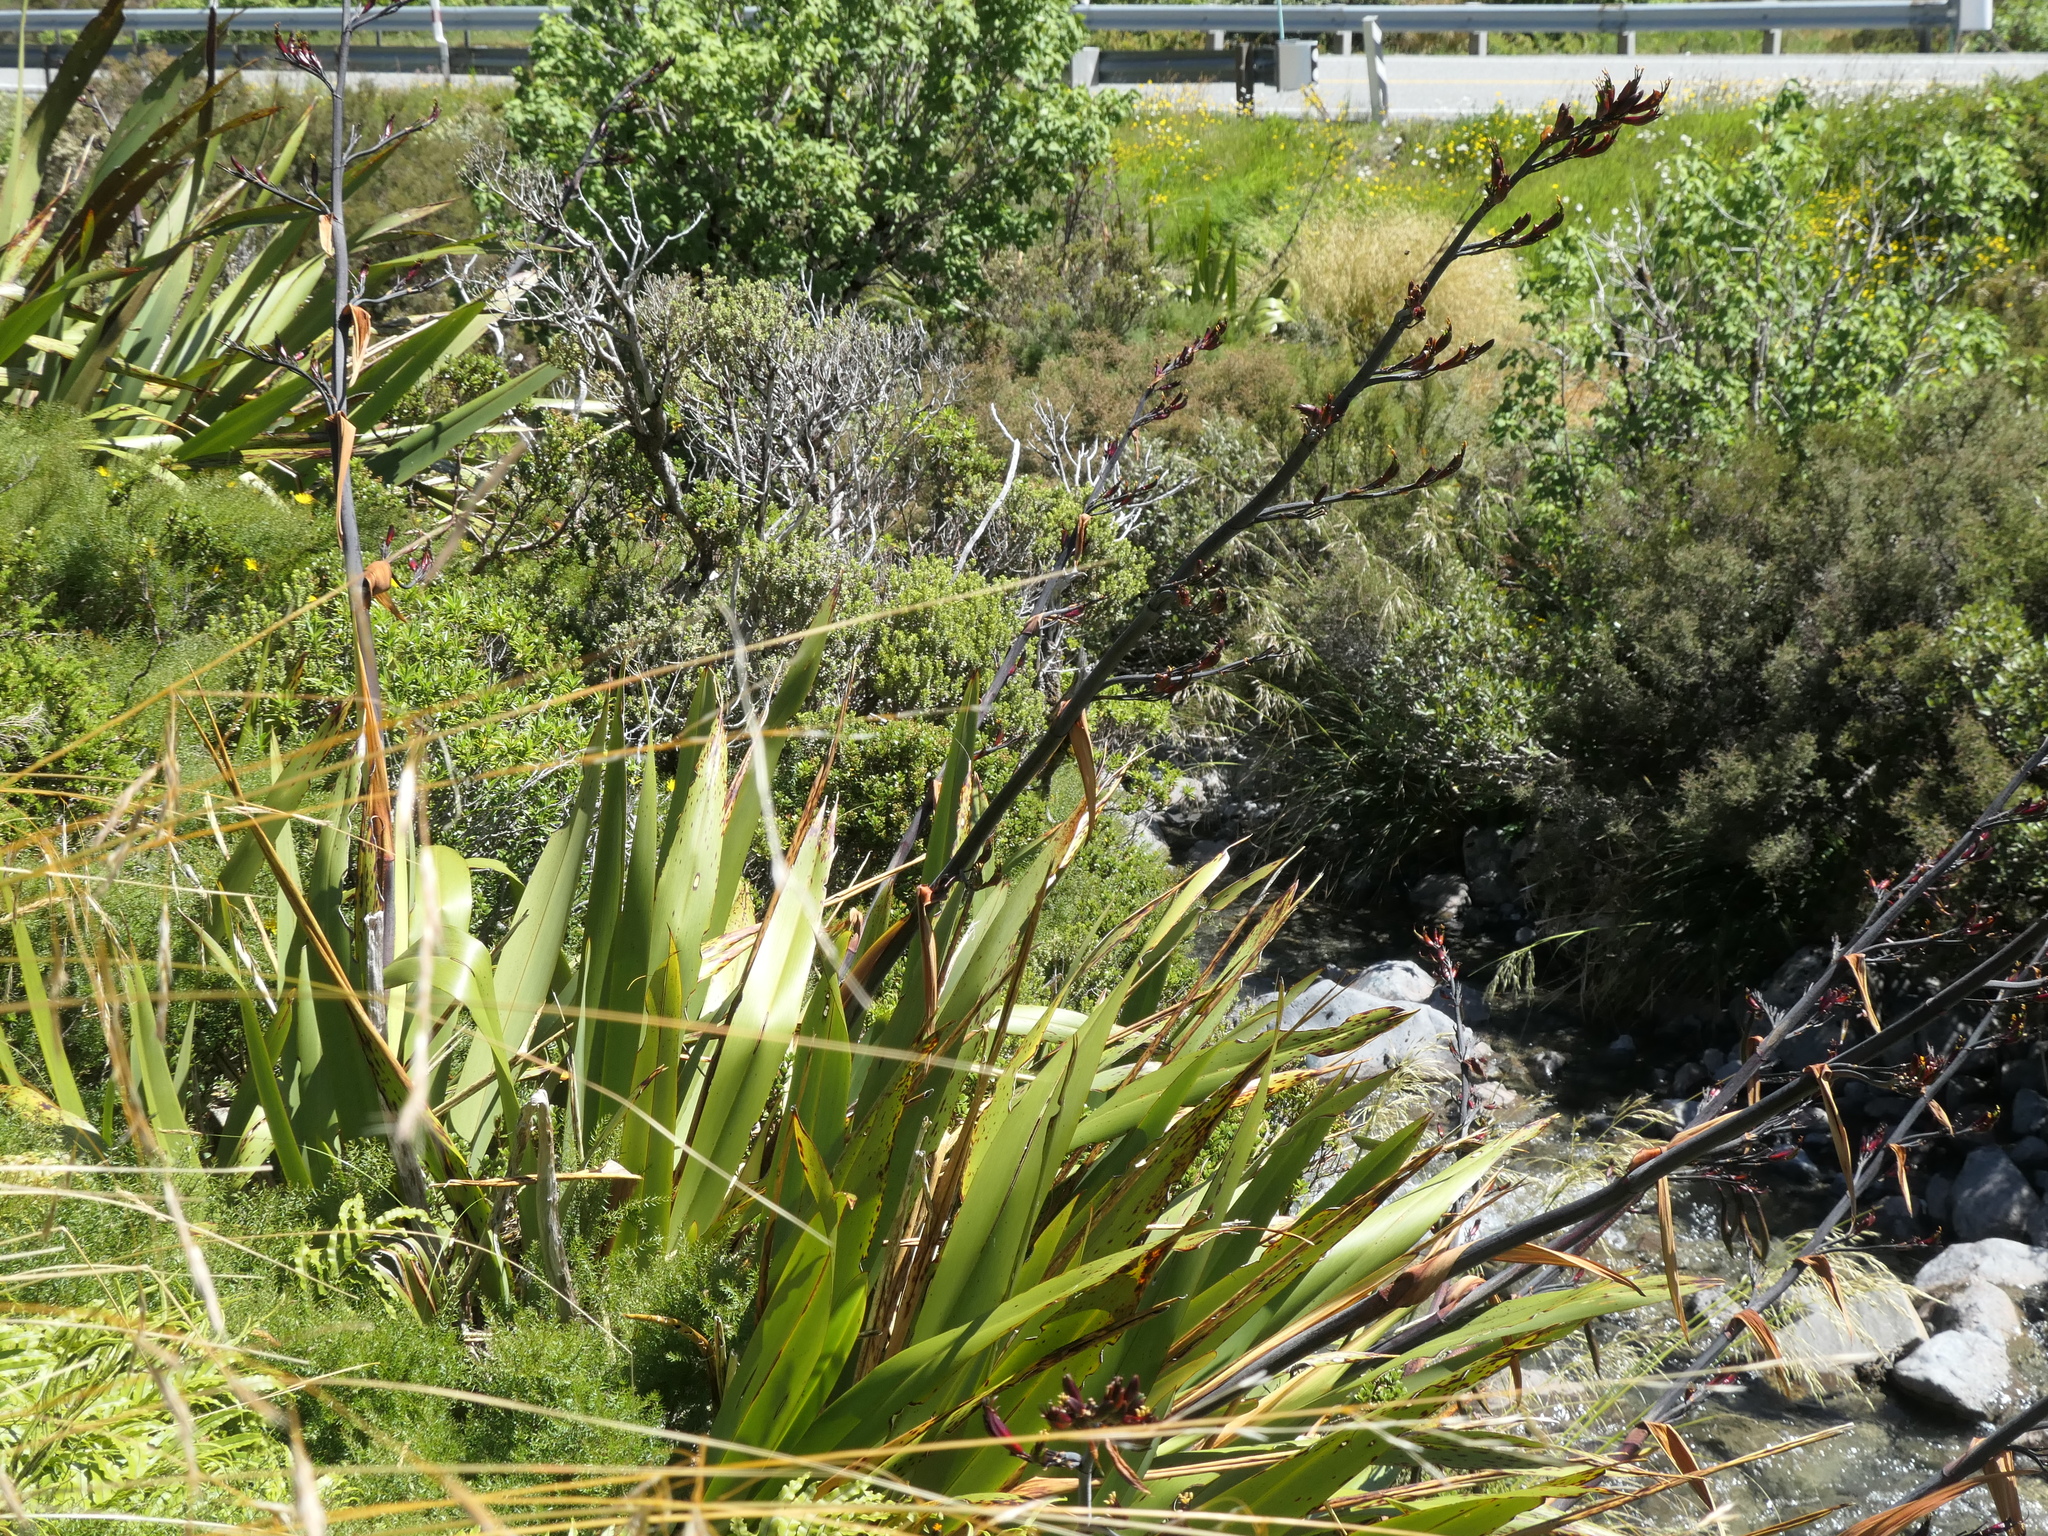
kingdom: Plantae
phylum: Tracheophyta
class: Liliopsida
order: Asparagales
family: Asphodelaceae
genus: Phormium
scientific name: Phormium colensoi
